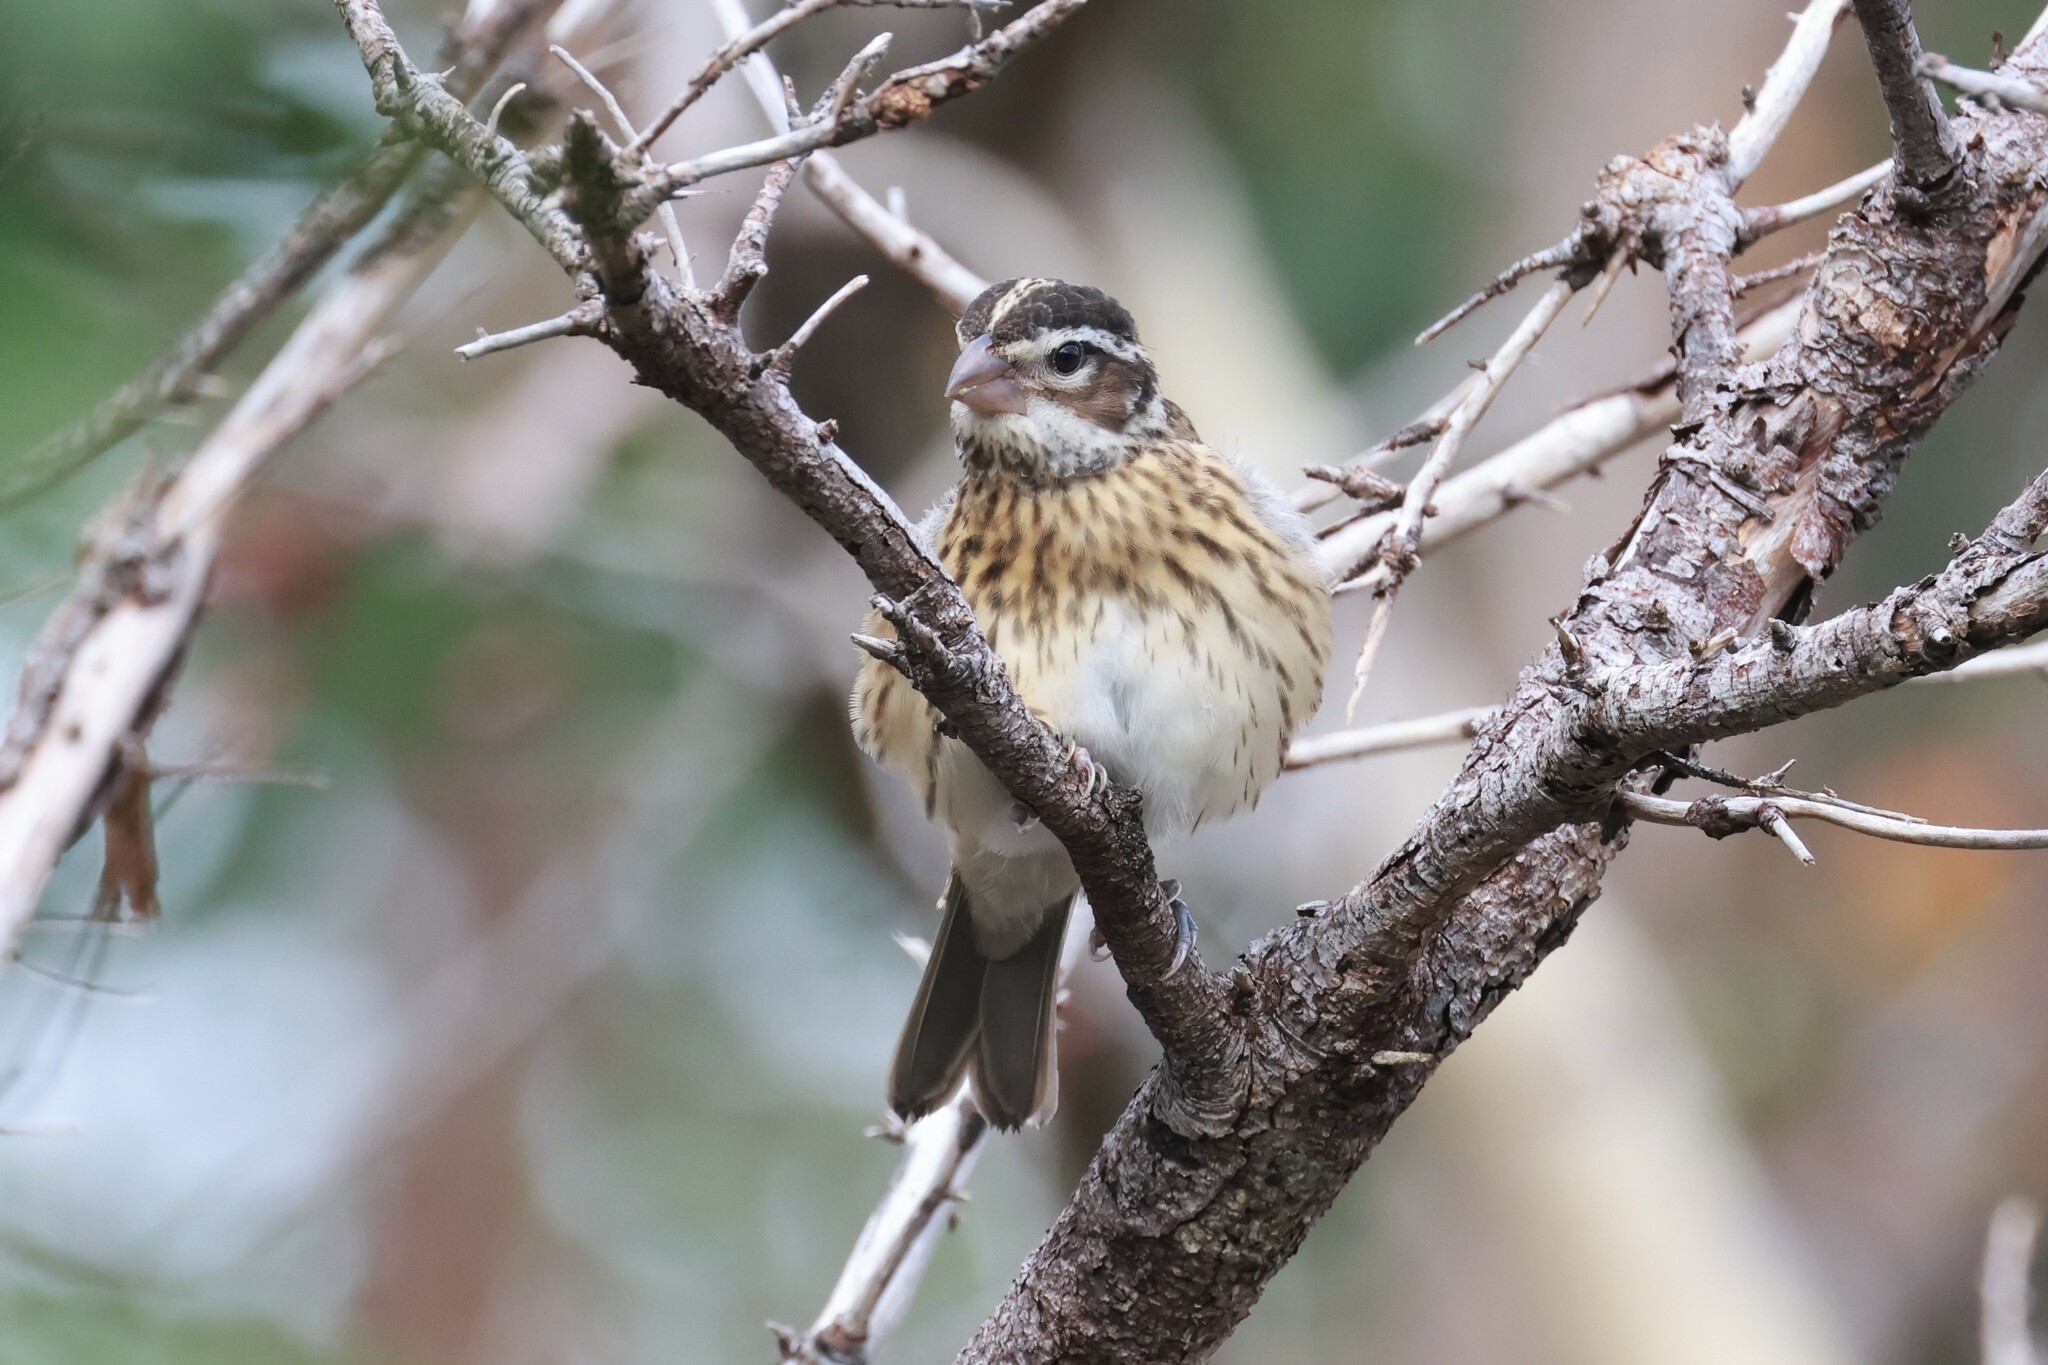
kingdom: Animalia
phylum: Chordata
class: Aves
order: Passeriformes
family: Cardinalidae
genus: Pheucticus
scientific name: Pheucticus ludovicianus
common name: Rose-breasted grosbeak
